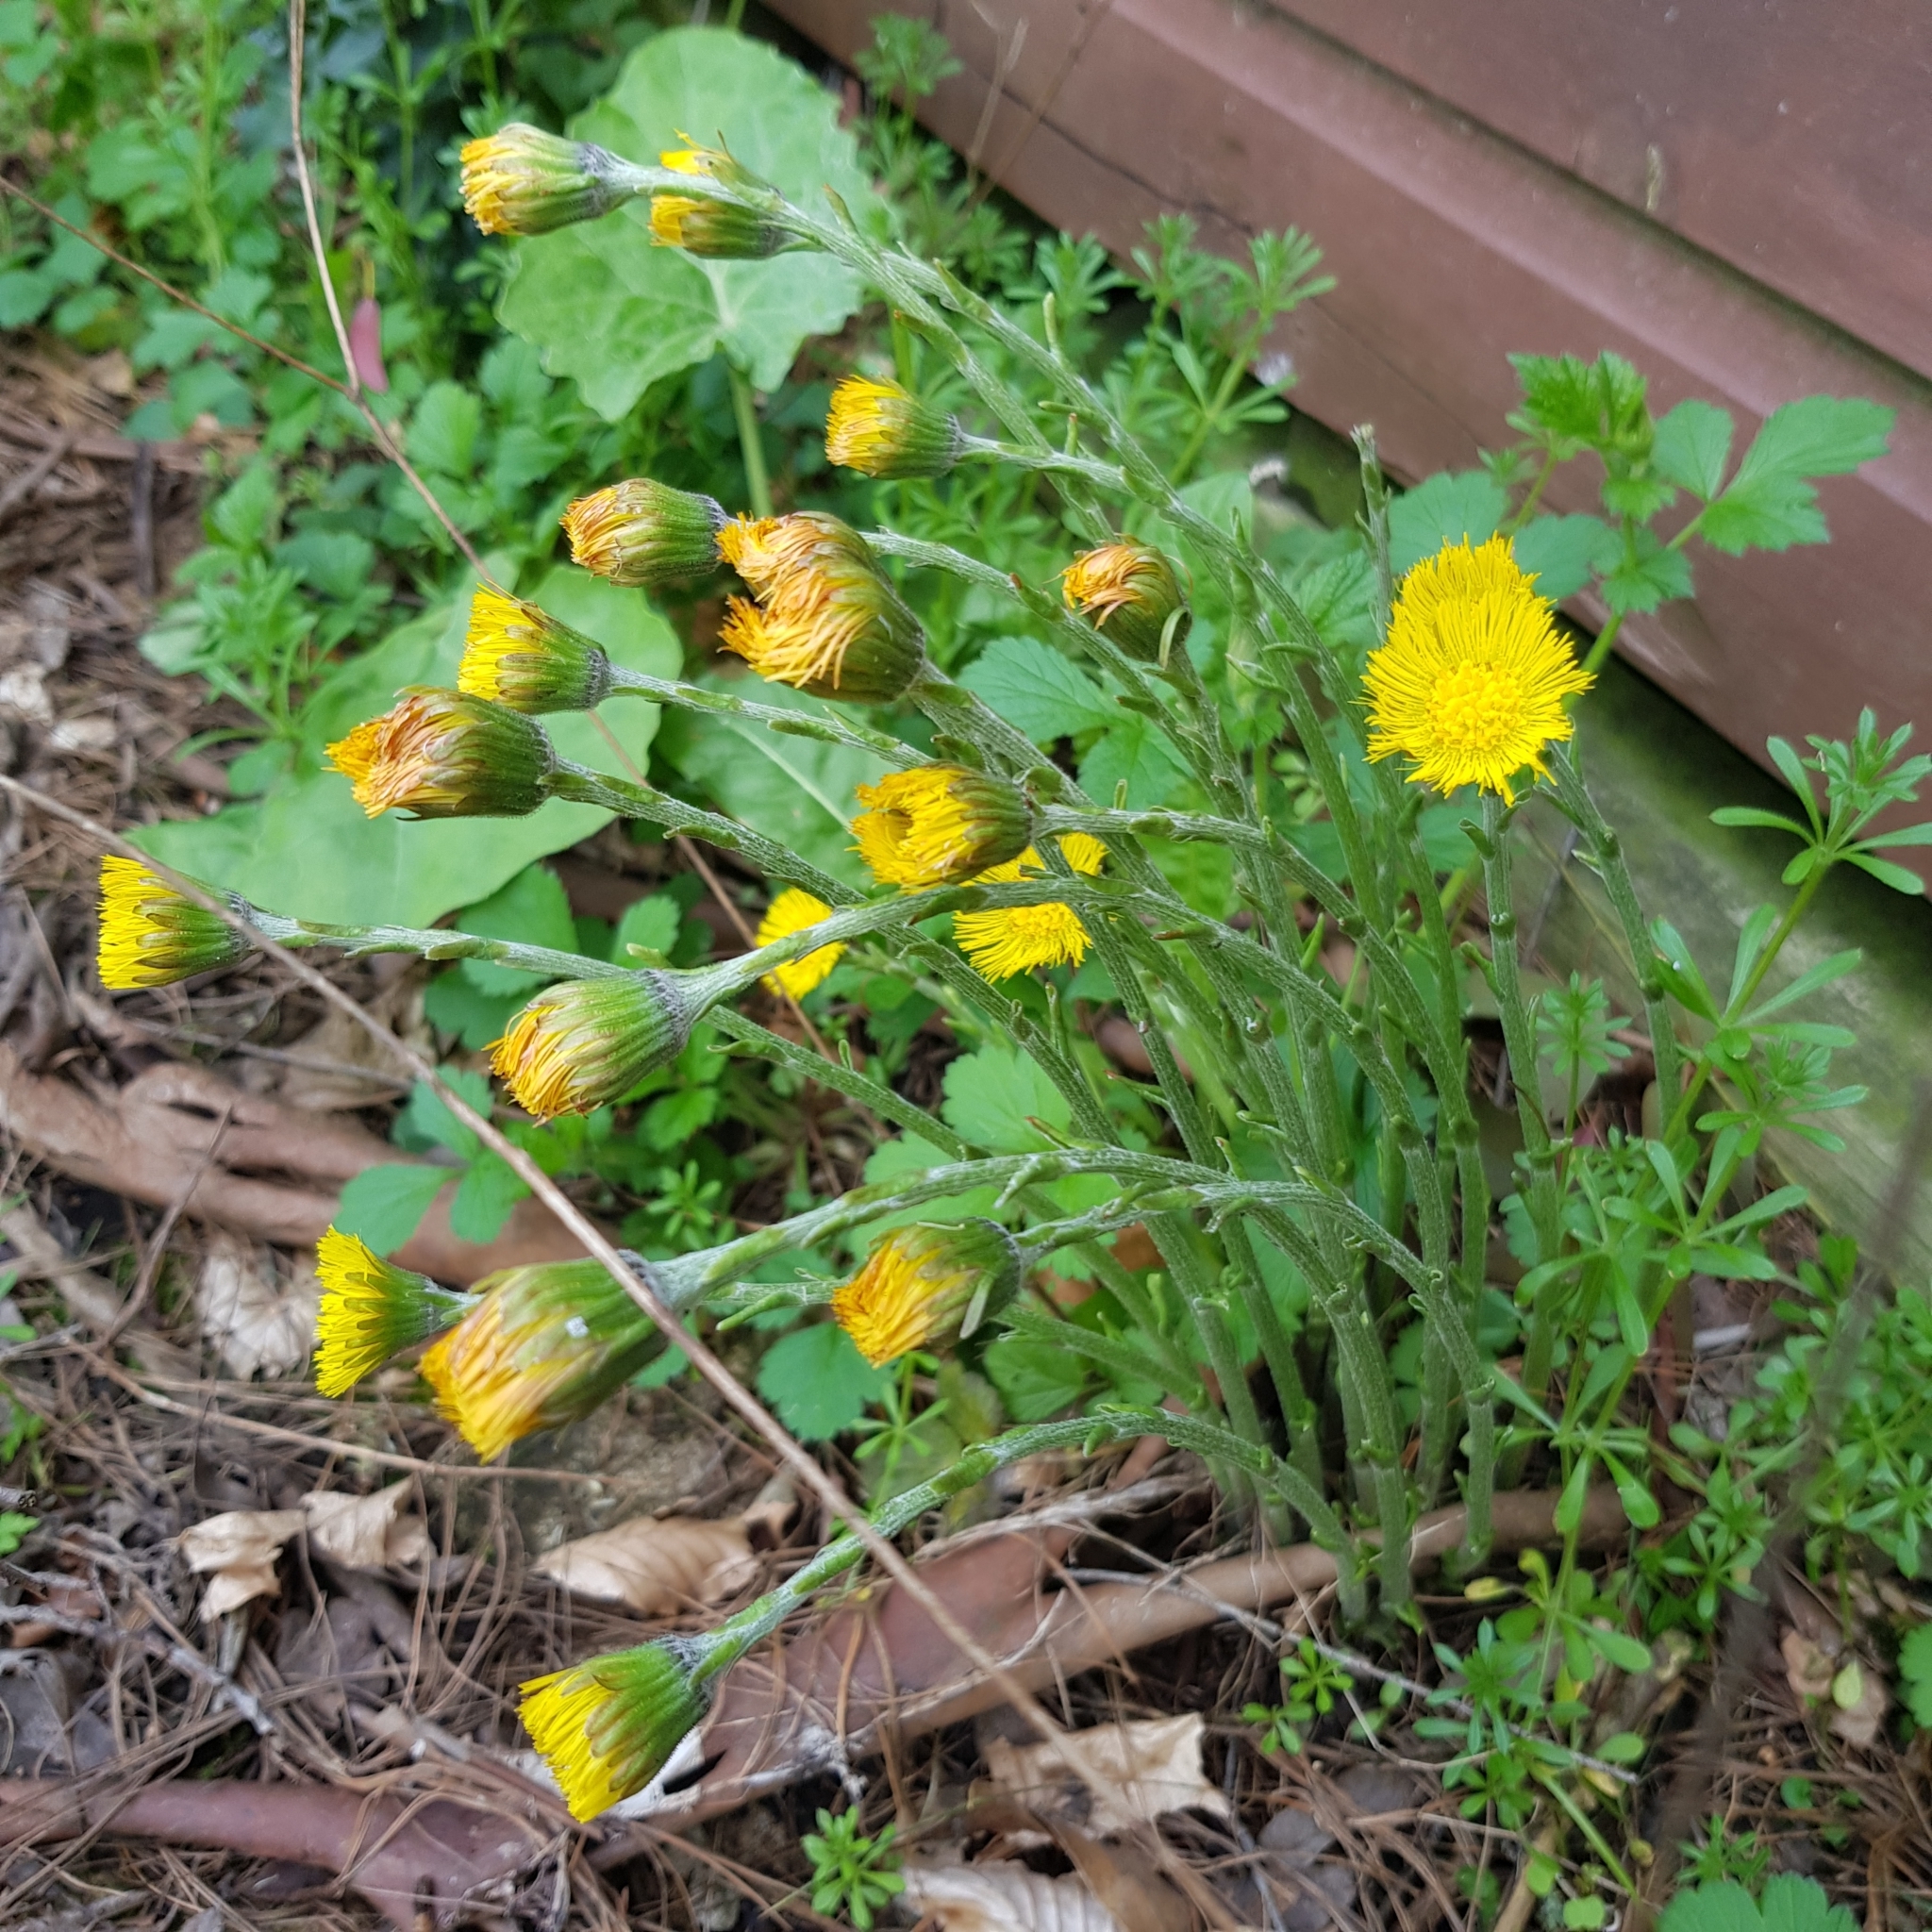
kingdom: Plantae
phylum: Tracheophyta
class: Magnoliopsida
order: Asterales
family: Asteraceae
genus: Tussilago
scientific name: Tussilago farfara
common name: Coltsfoot
